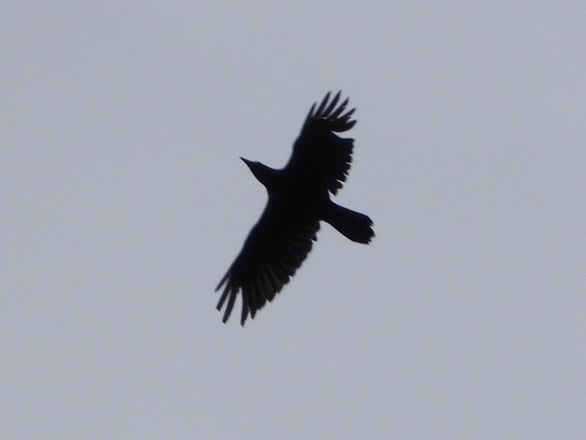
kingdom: Animalia
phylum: Chordata
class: Aves
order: Passeriformes
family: Corvidae
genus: Corvus
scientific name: Corvus corax
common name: Common raven
